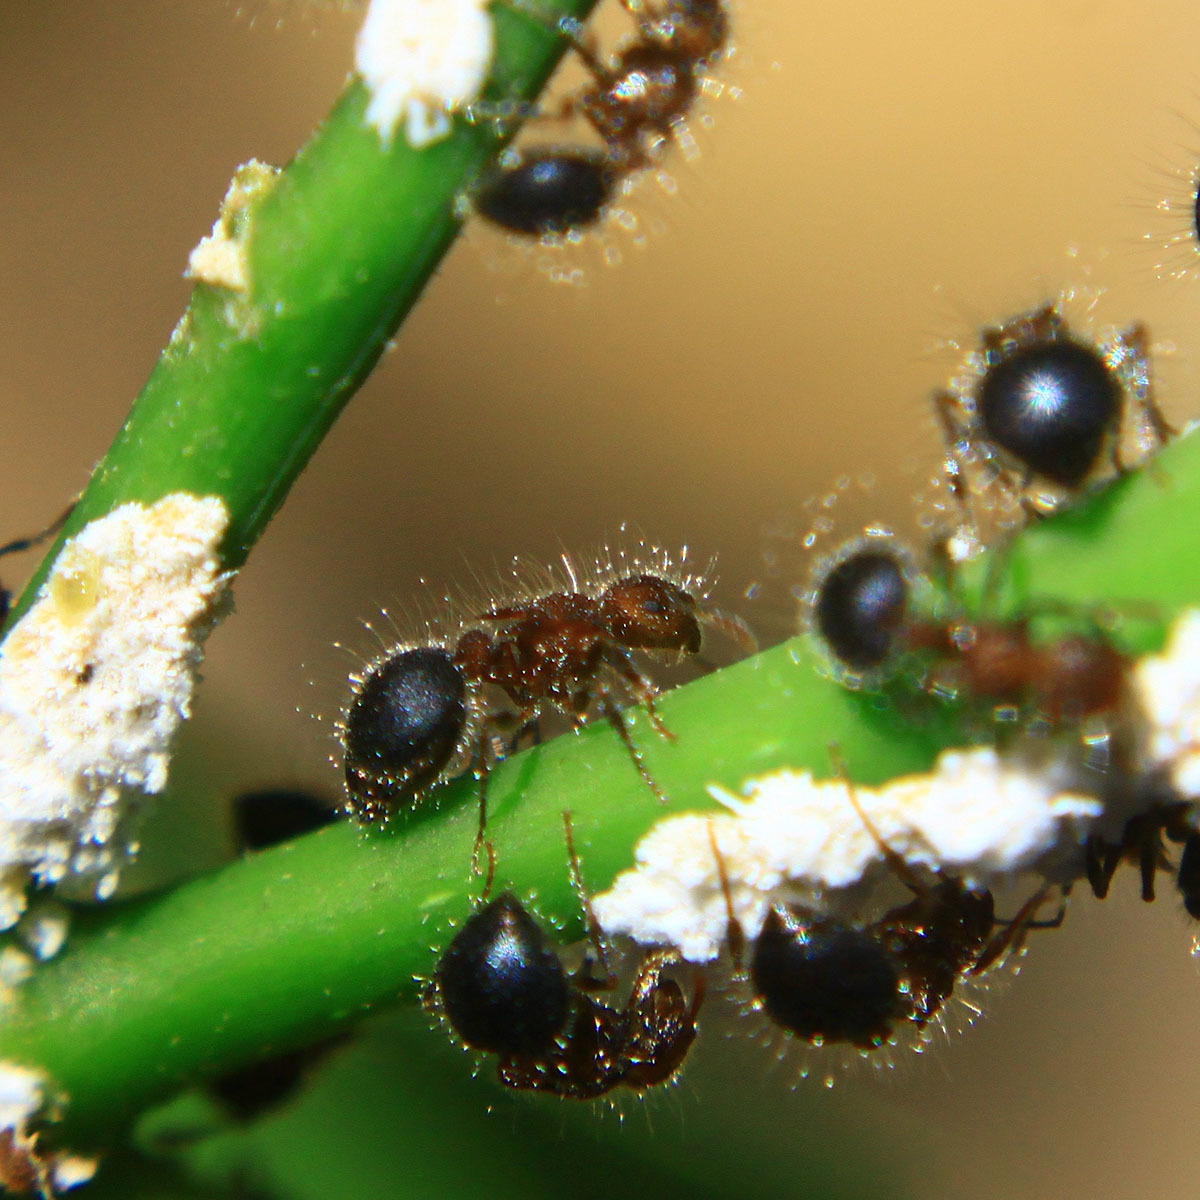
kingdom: Animalia
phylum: Arthropoda
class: Insecta
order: Hymenoptera
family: Formicidae
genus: Meranoplus
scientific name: Meranoplus bicolor
